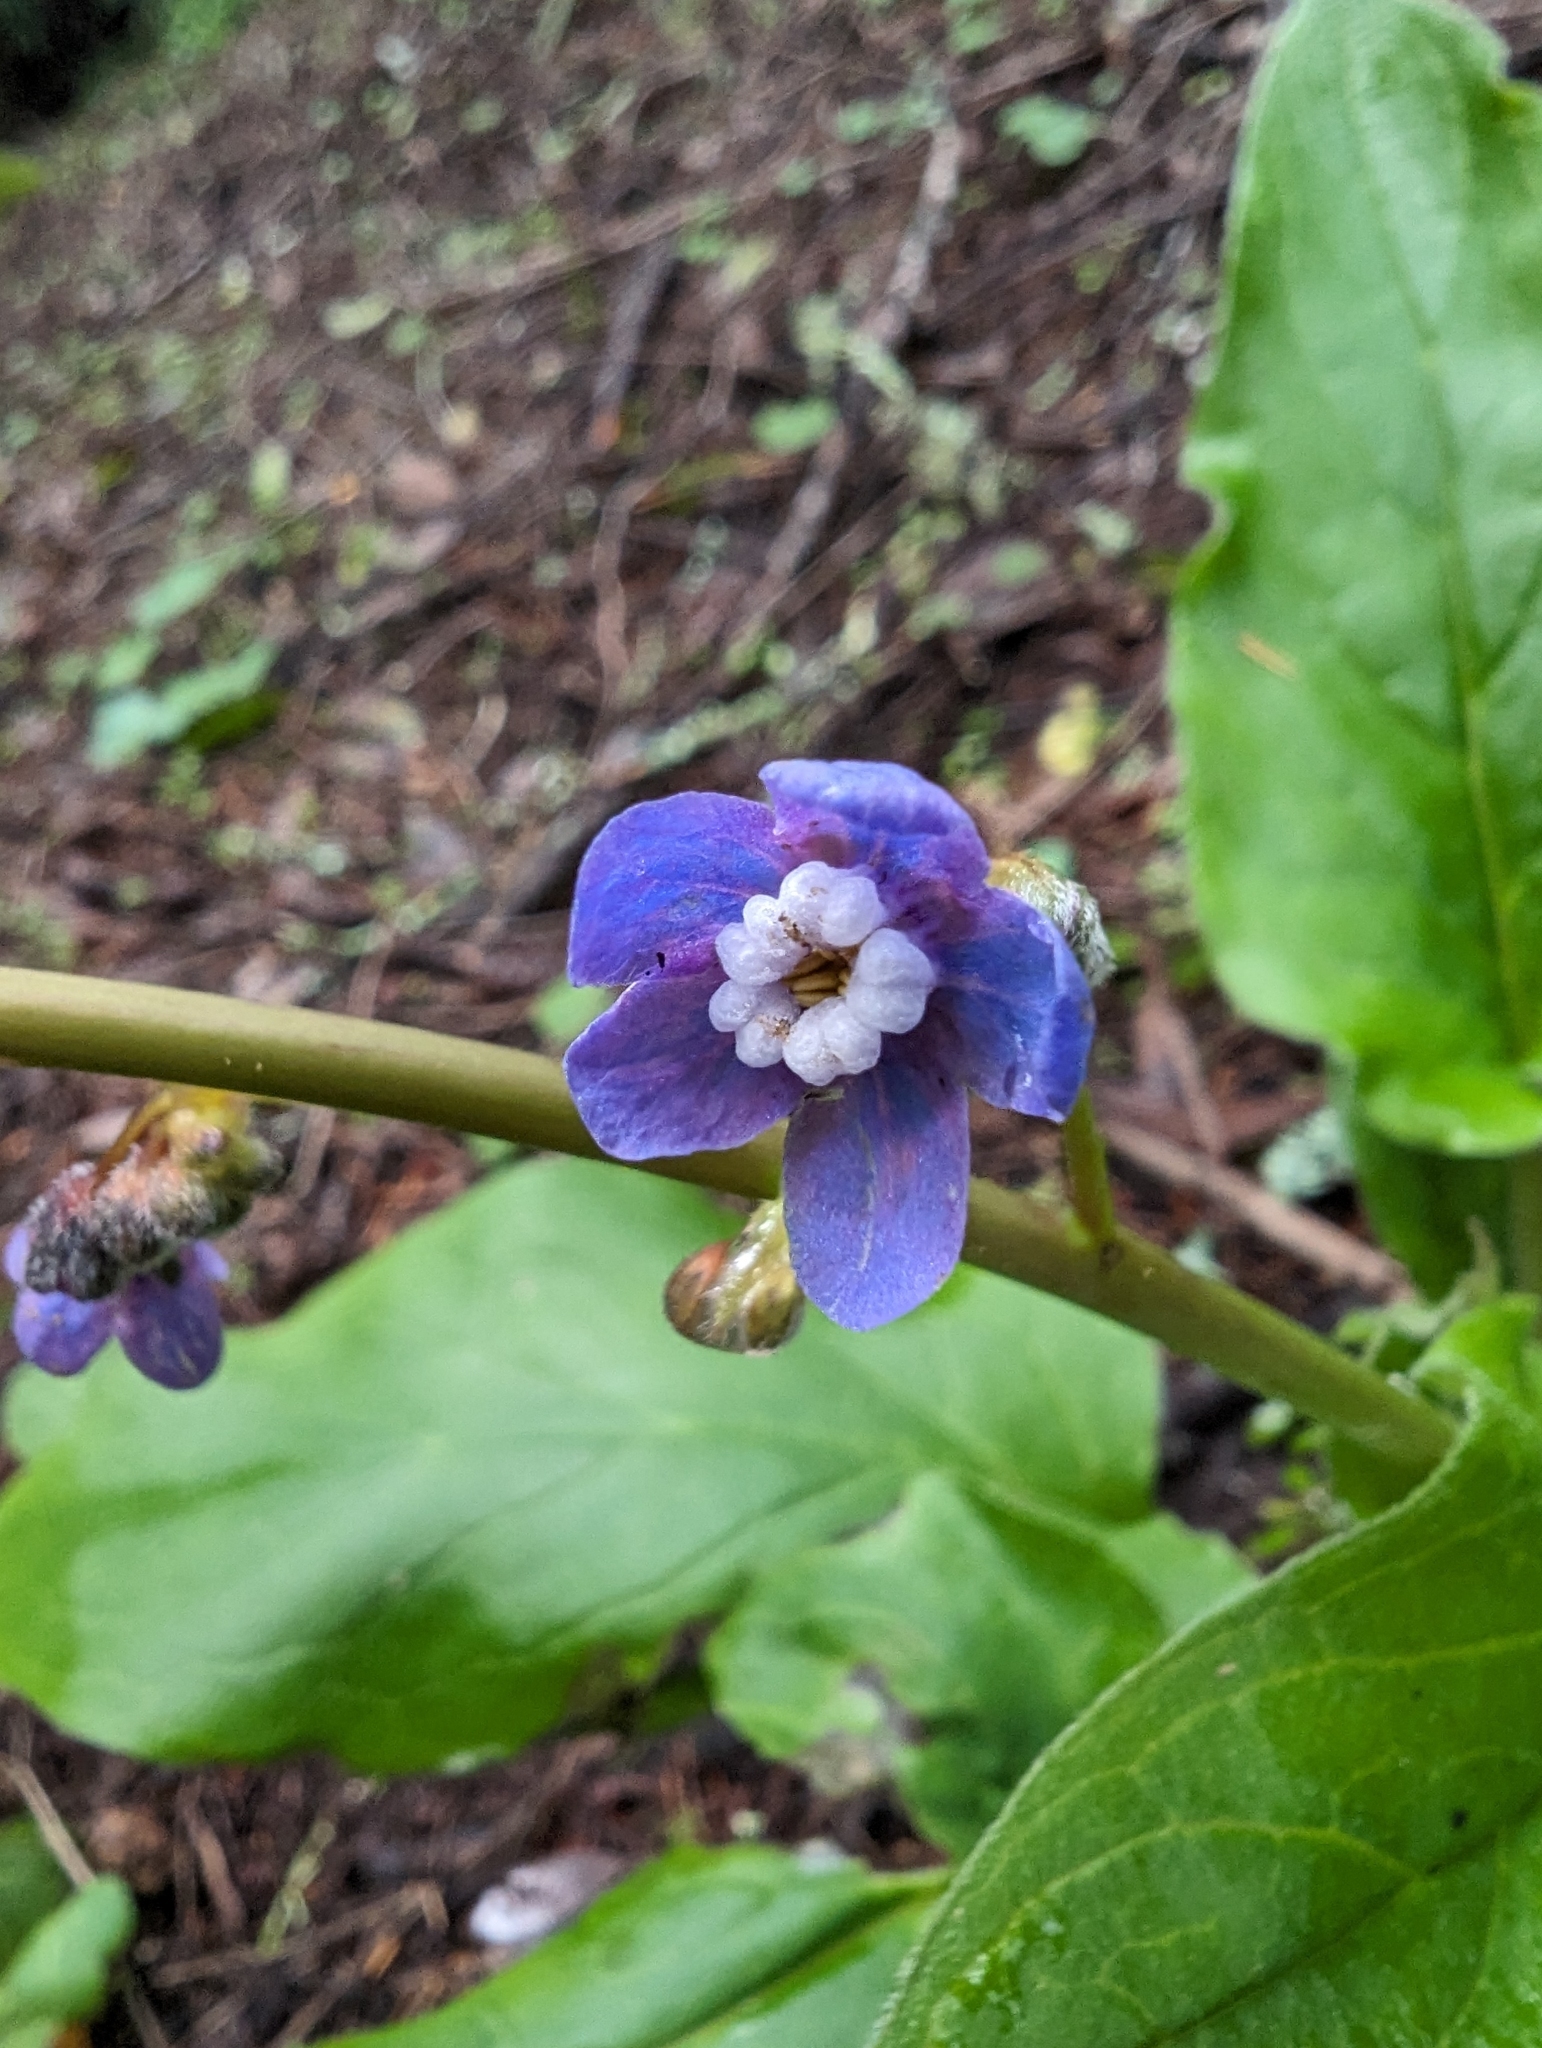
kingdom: Plantae
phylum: Tracheophyta
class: Magnoliopsida
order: Boraginales
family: Boraginaceae
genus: Adelinia
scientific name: Adelinia grande
